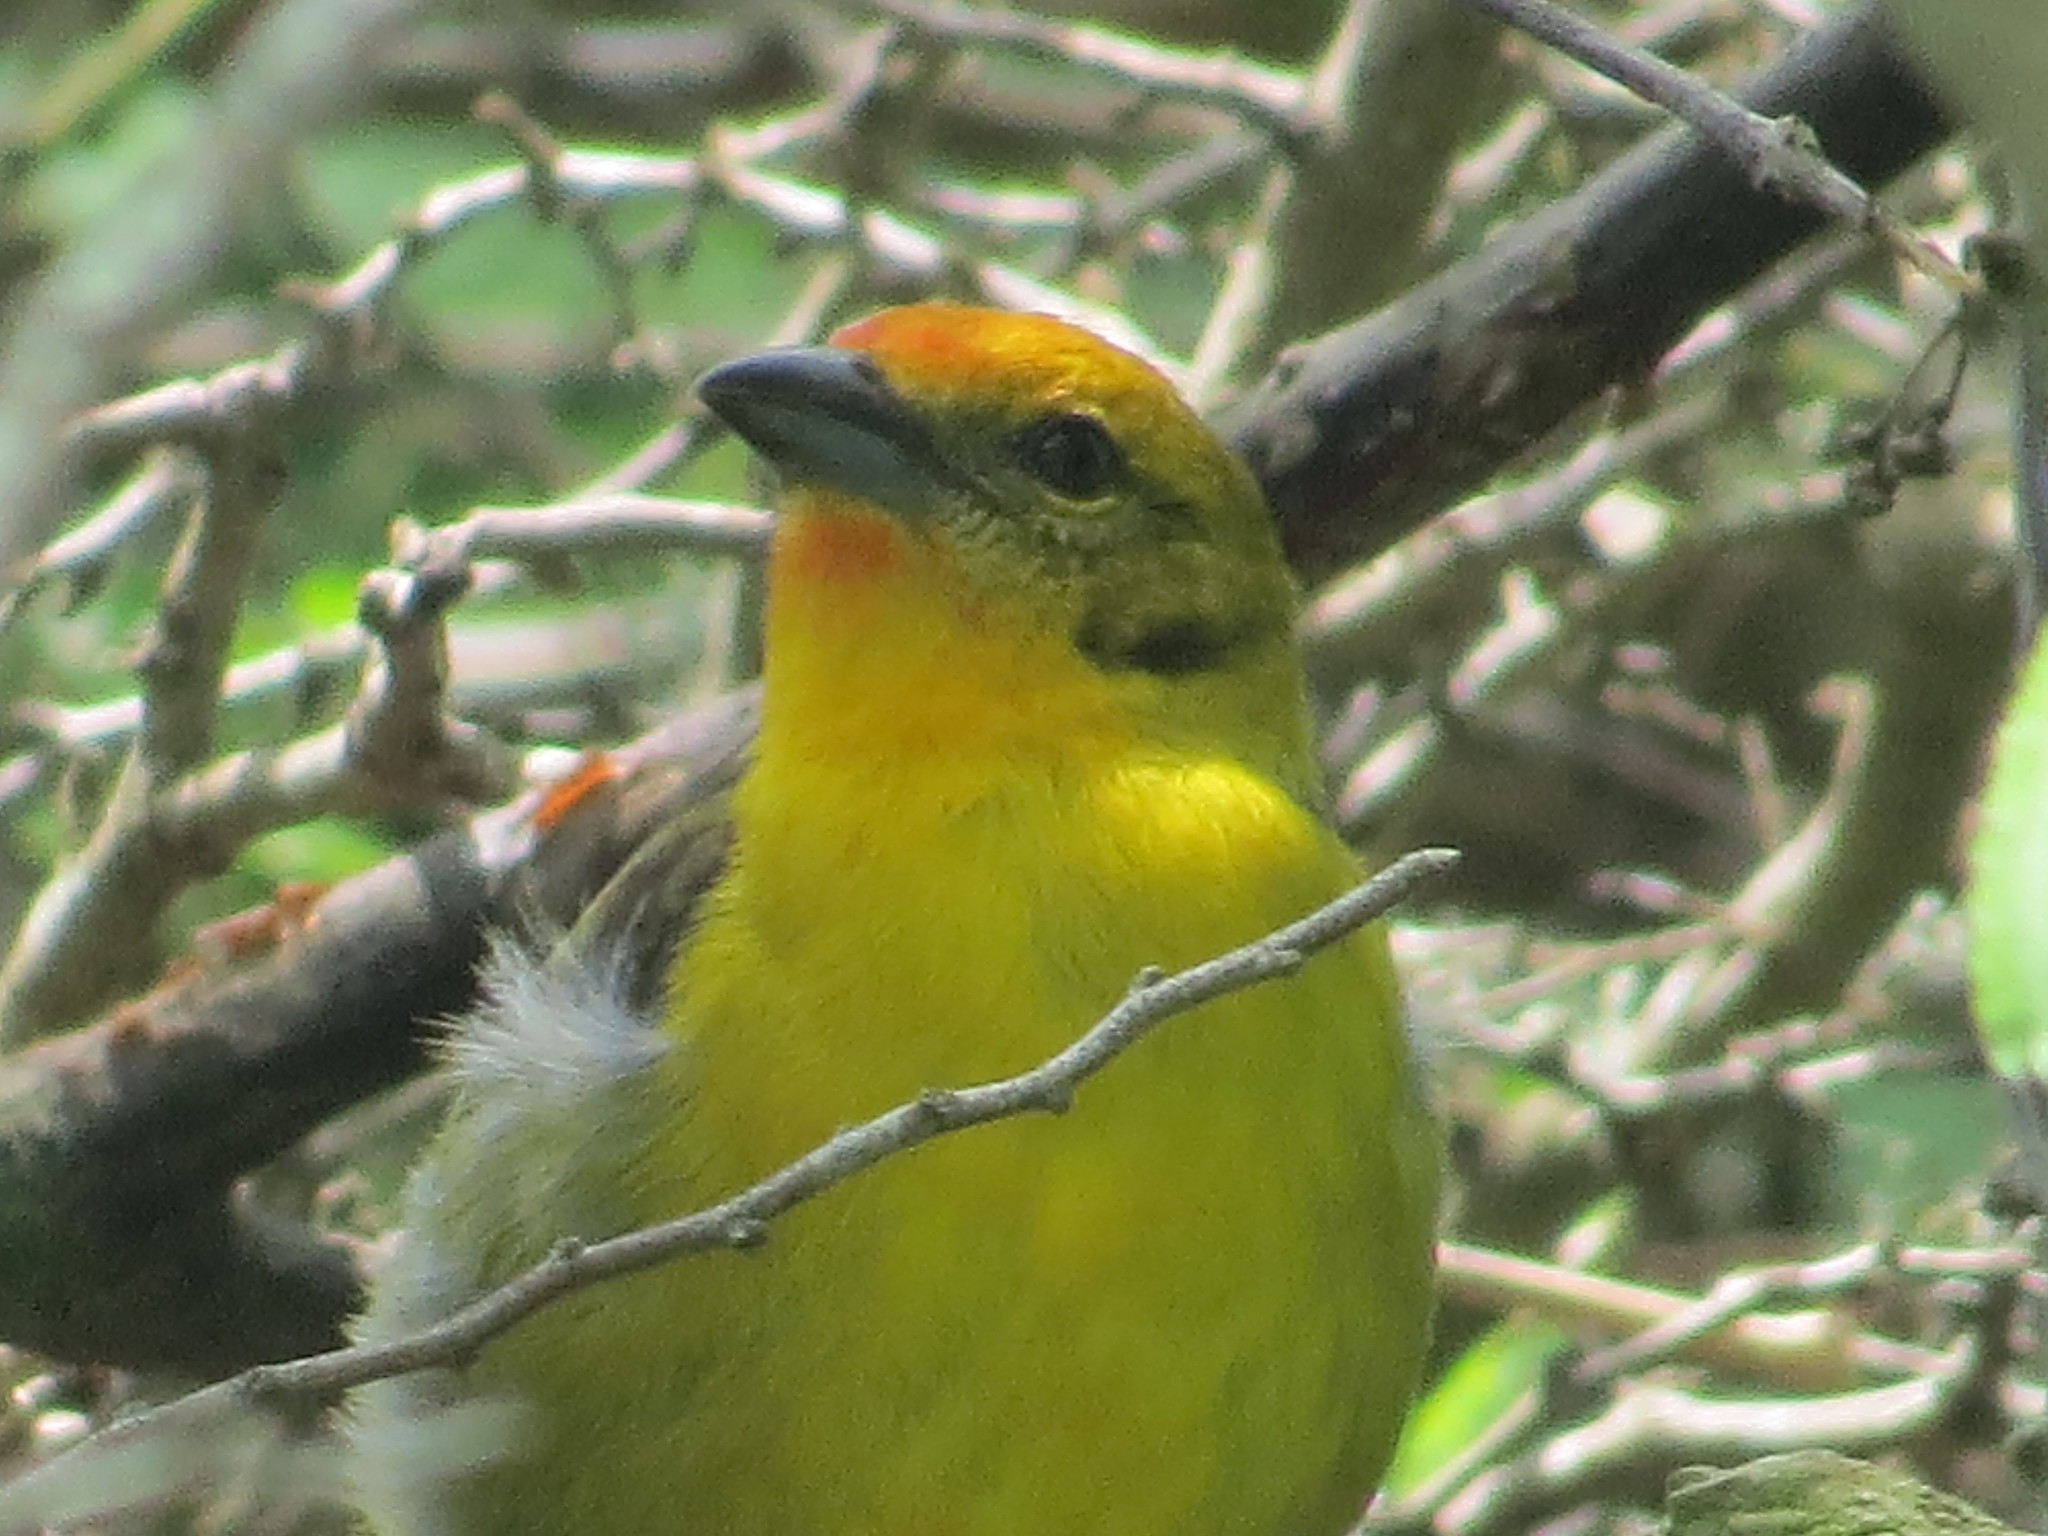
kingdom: Animalia
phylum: Chordata
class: Aves
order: Passeriformes
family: Cardinalidae
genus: Piranga
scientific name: Piranga bidentata
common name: Flame-colored tanager
